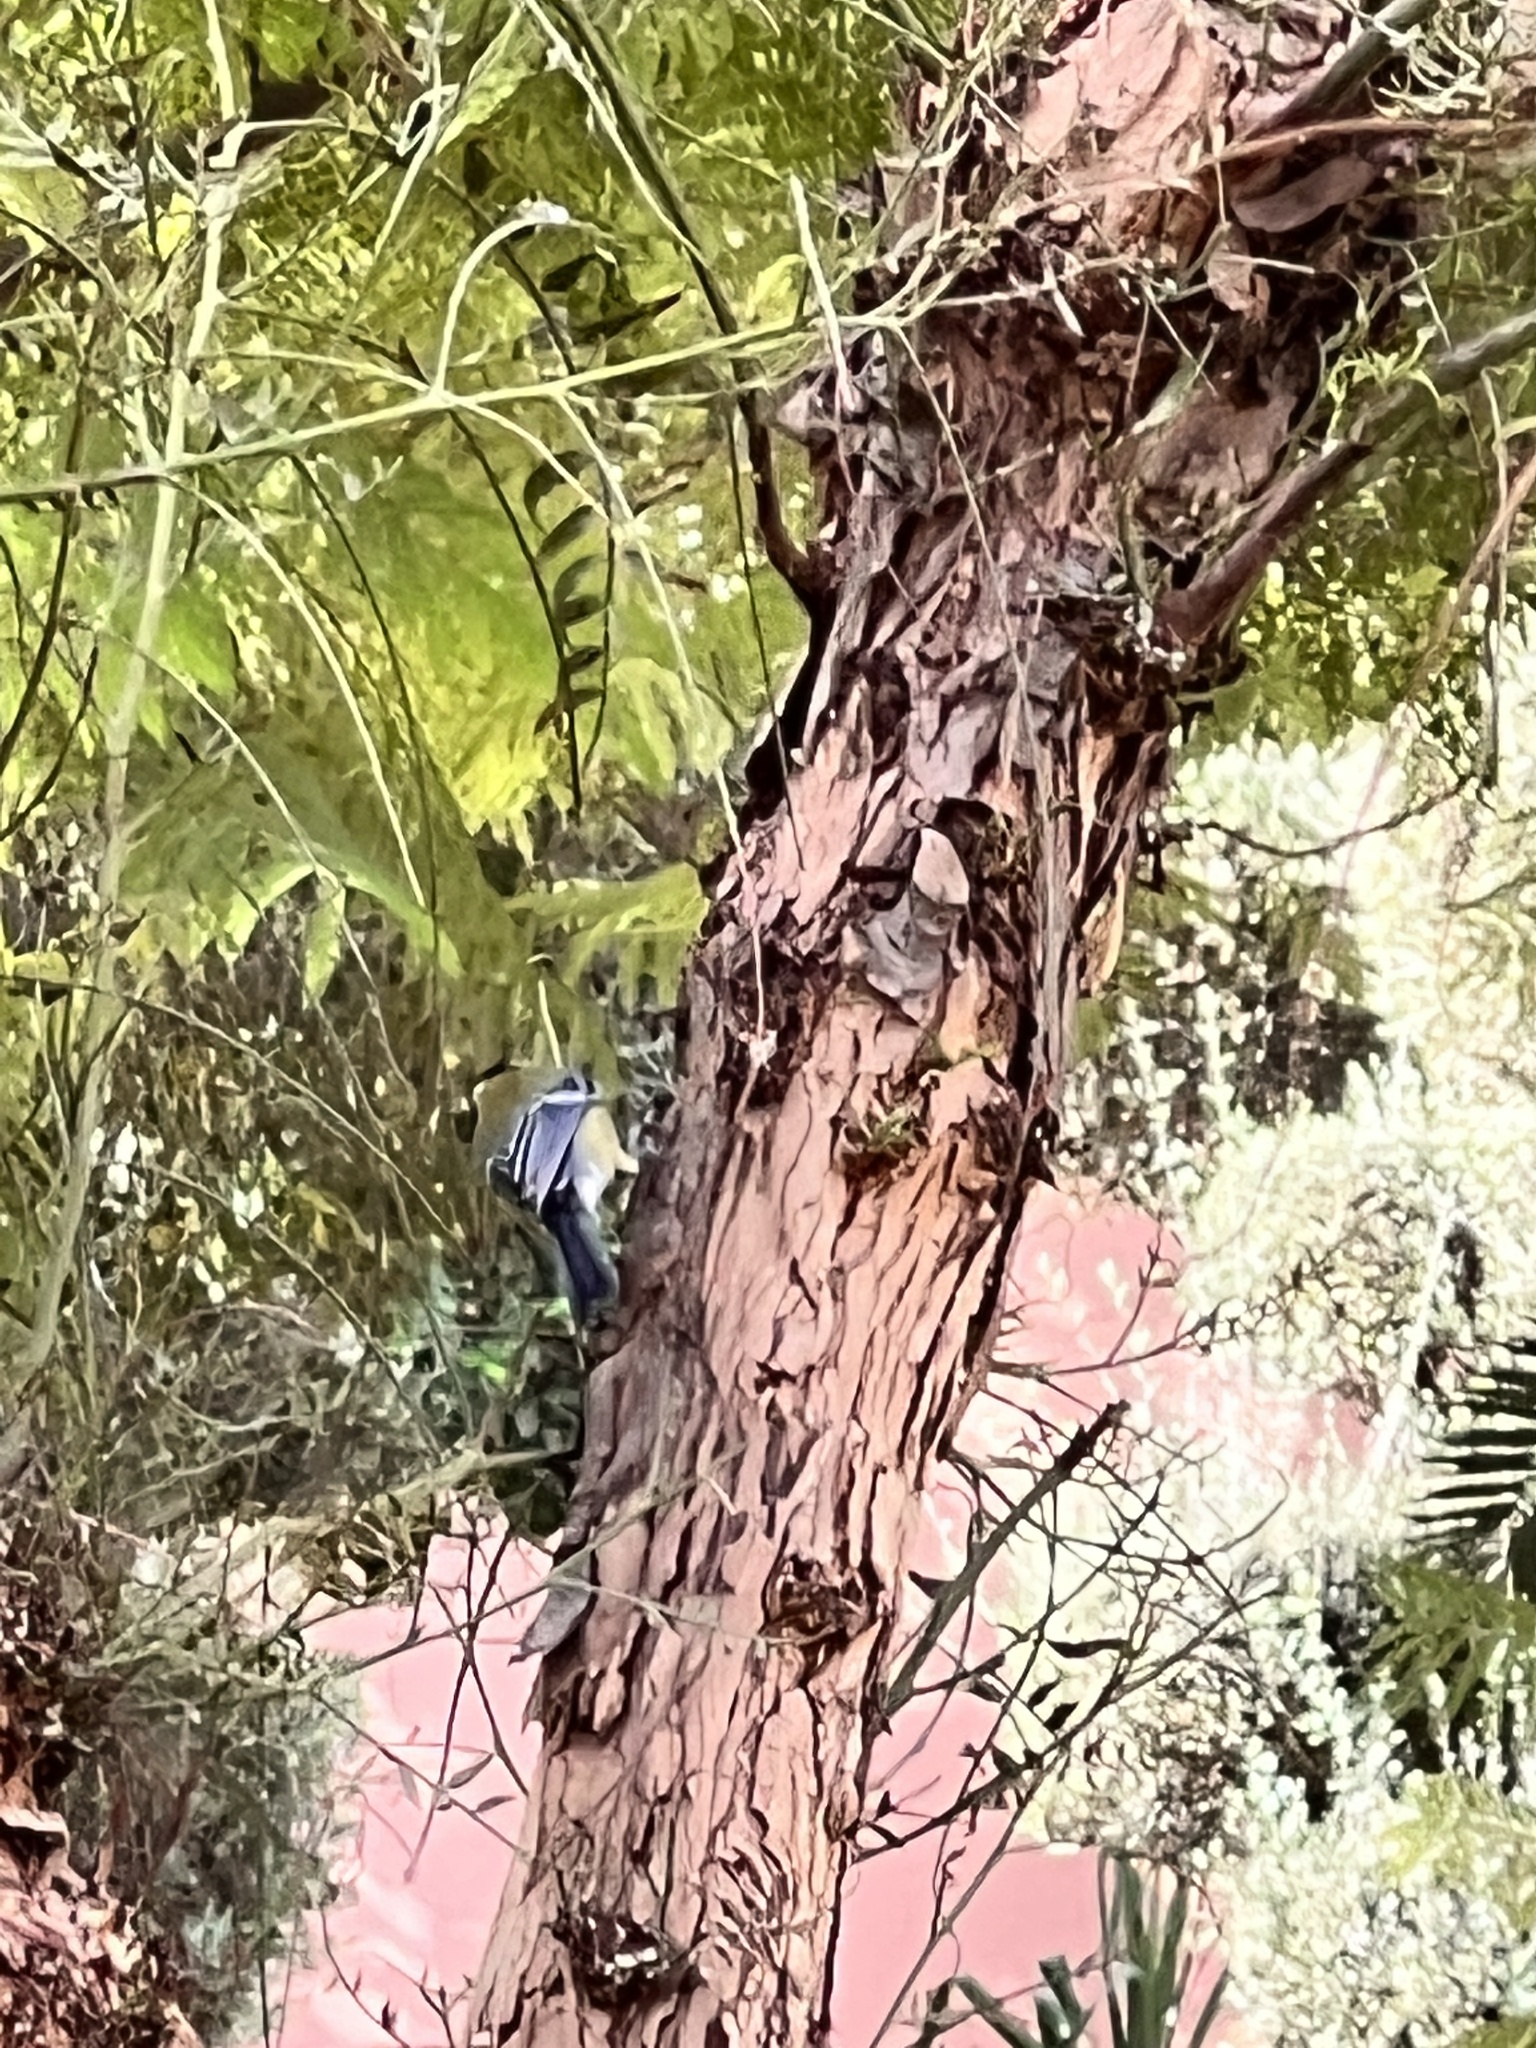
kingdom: Animalia
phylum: Chordata
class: Aves
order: Passeriformes
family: Paridae
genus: Parus
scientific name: Parus major
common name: Great tit
